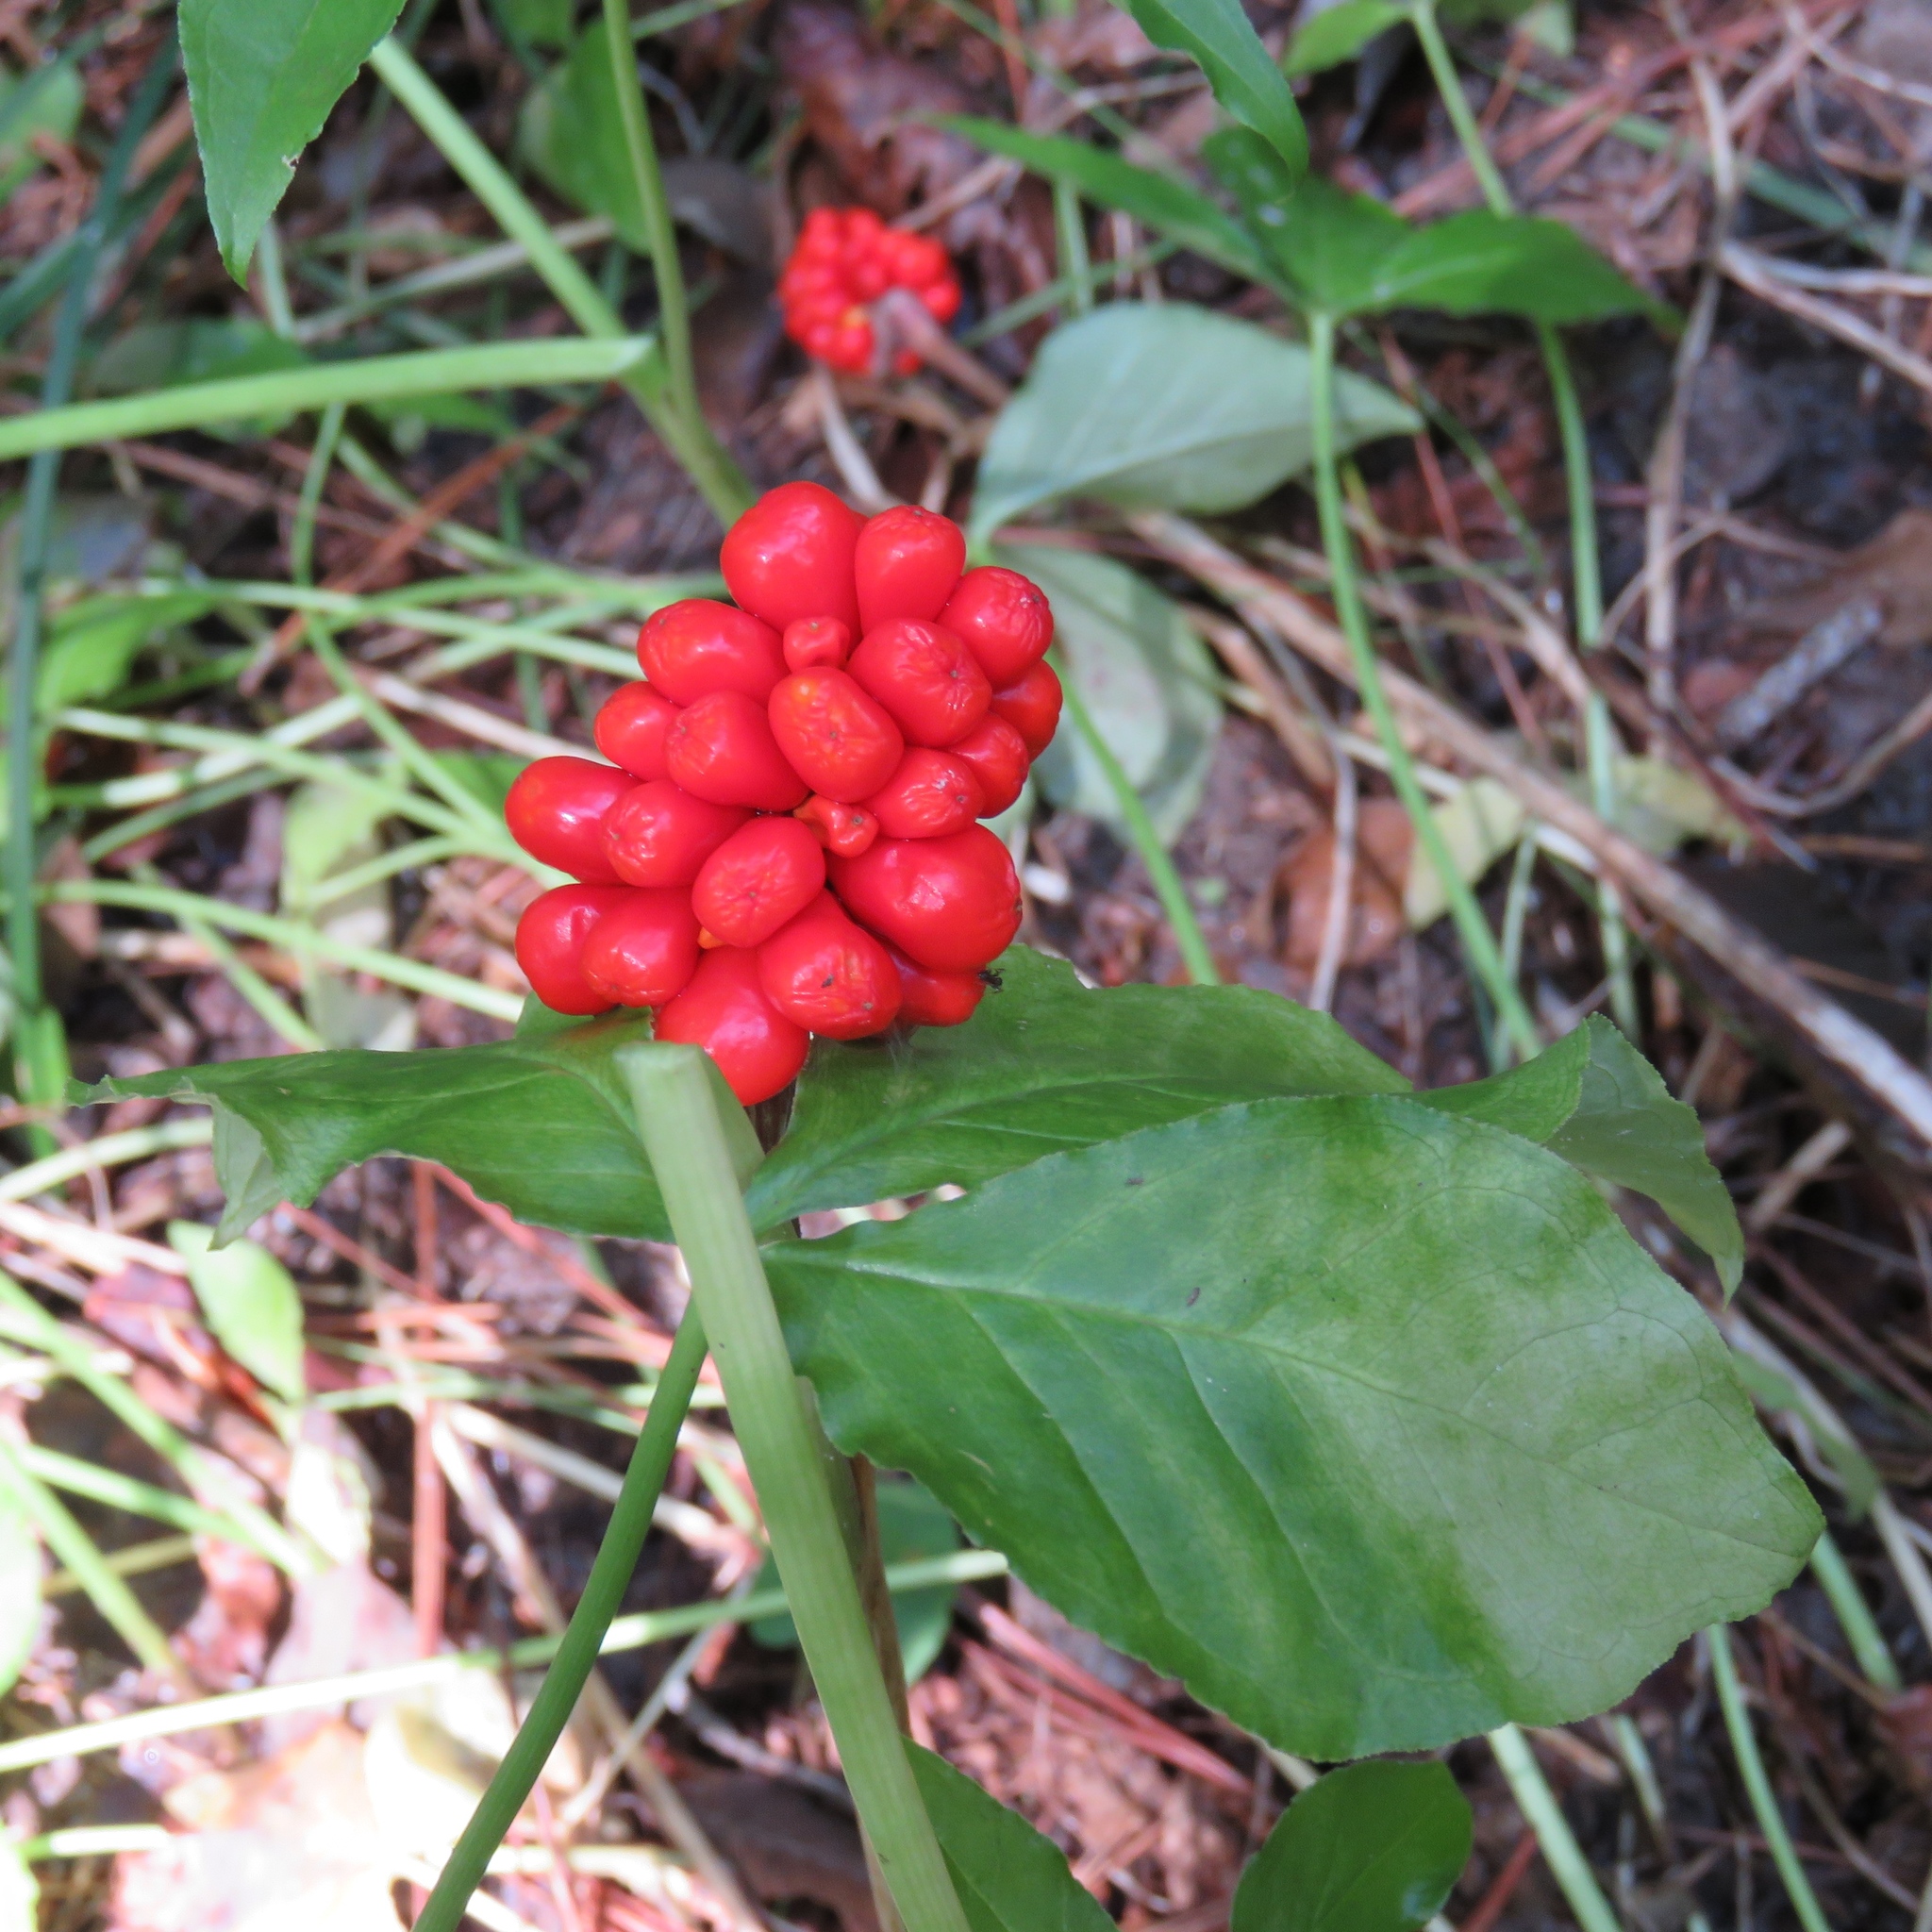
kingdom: Plantae
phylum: Tracheophyta
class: Liliopsida
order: Alismatales
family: Araceae
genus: Arisaema
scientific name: Arisaema triphyllum
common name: Jack-in-the-pulpit
